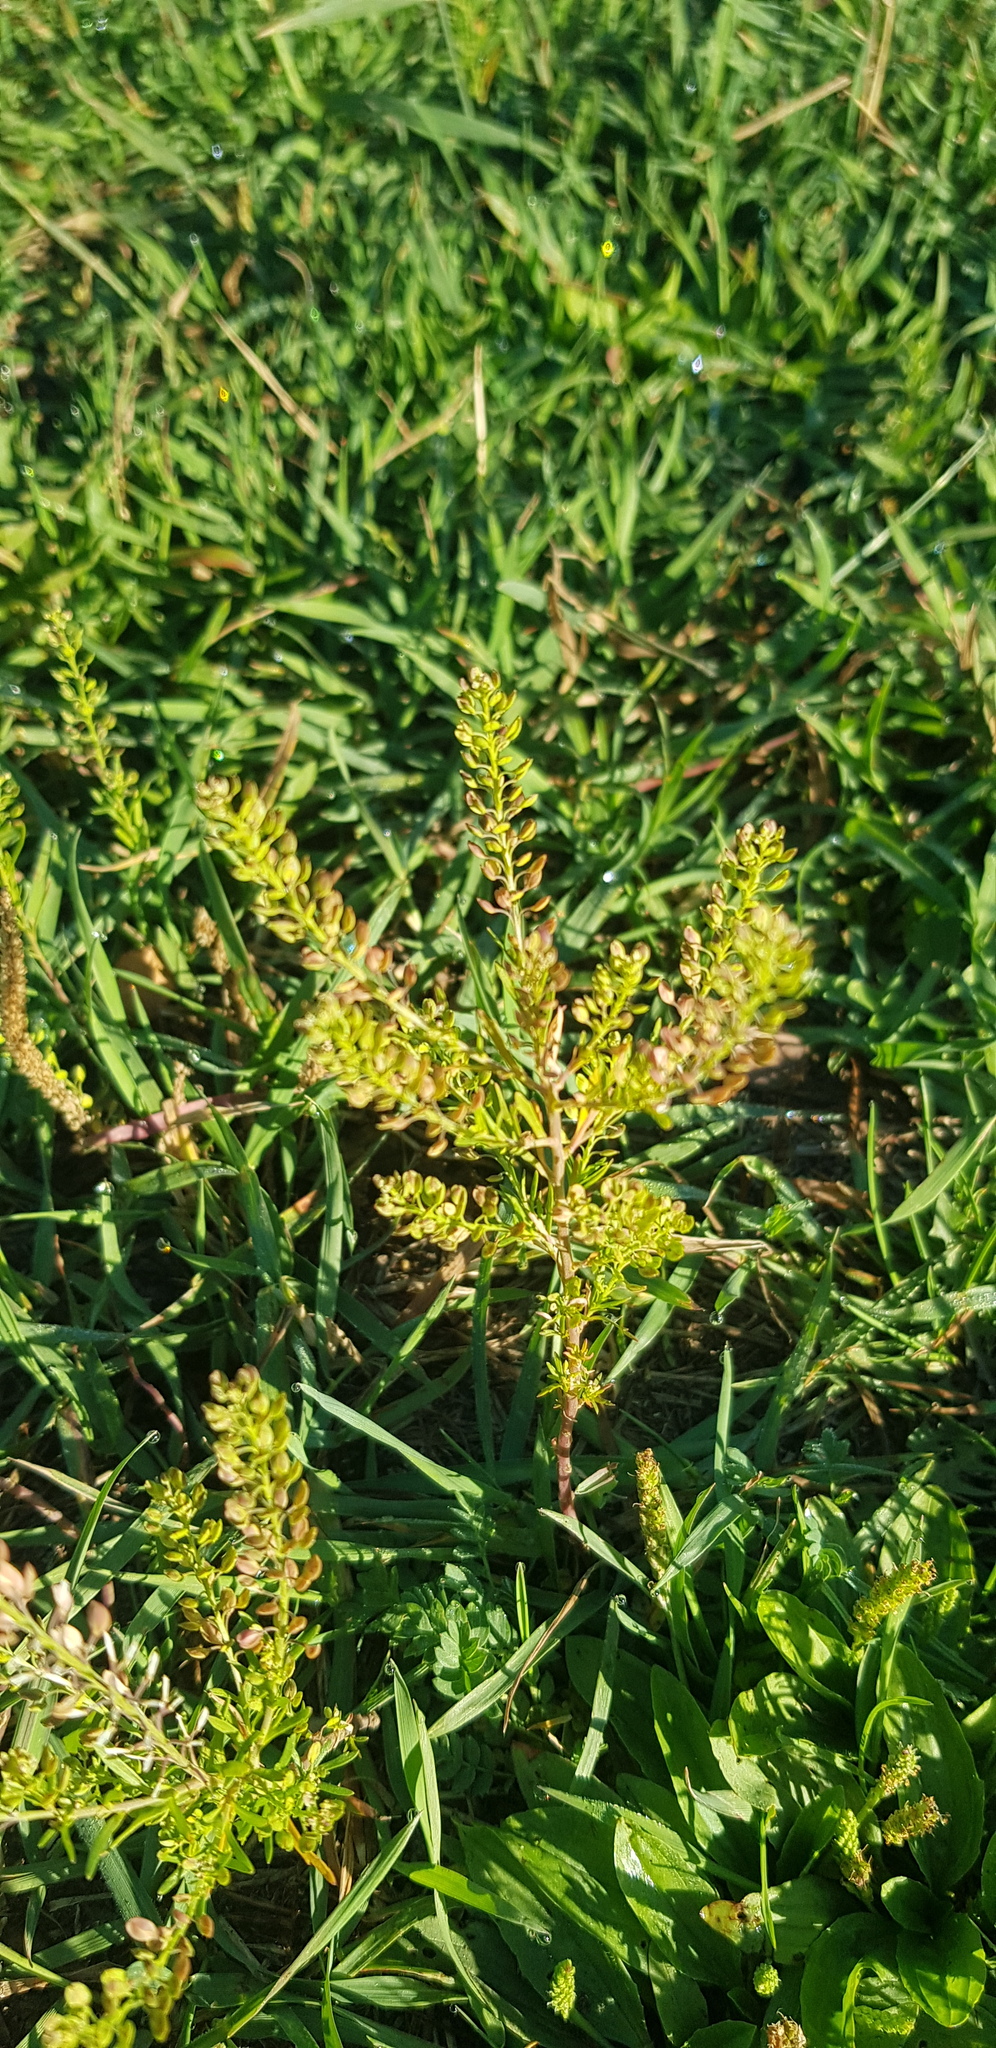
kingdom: Plantae
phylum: Tracheophyta
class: Magnoliopsida
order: Brassicales
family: Brassicaceae
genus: Lepidium
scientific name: Lepidium densiflorum
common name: Miner's pepperwort
